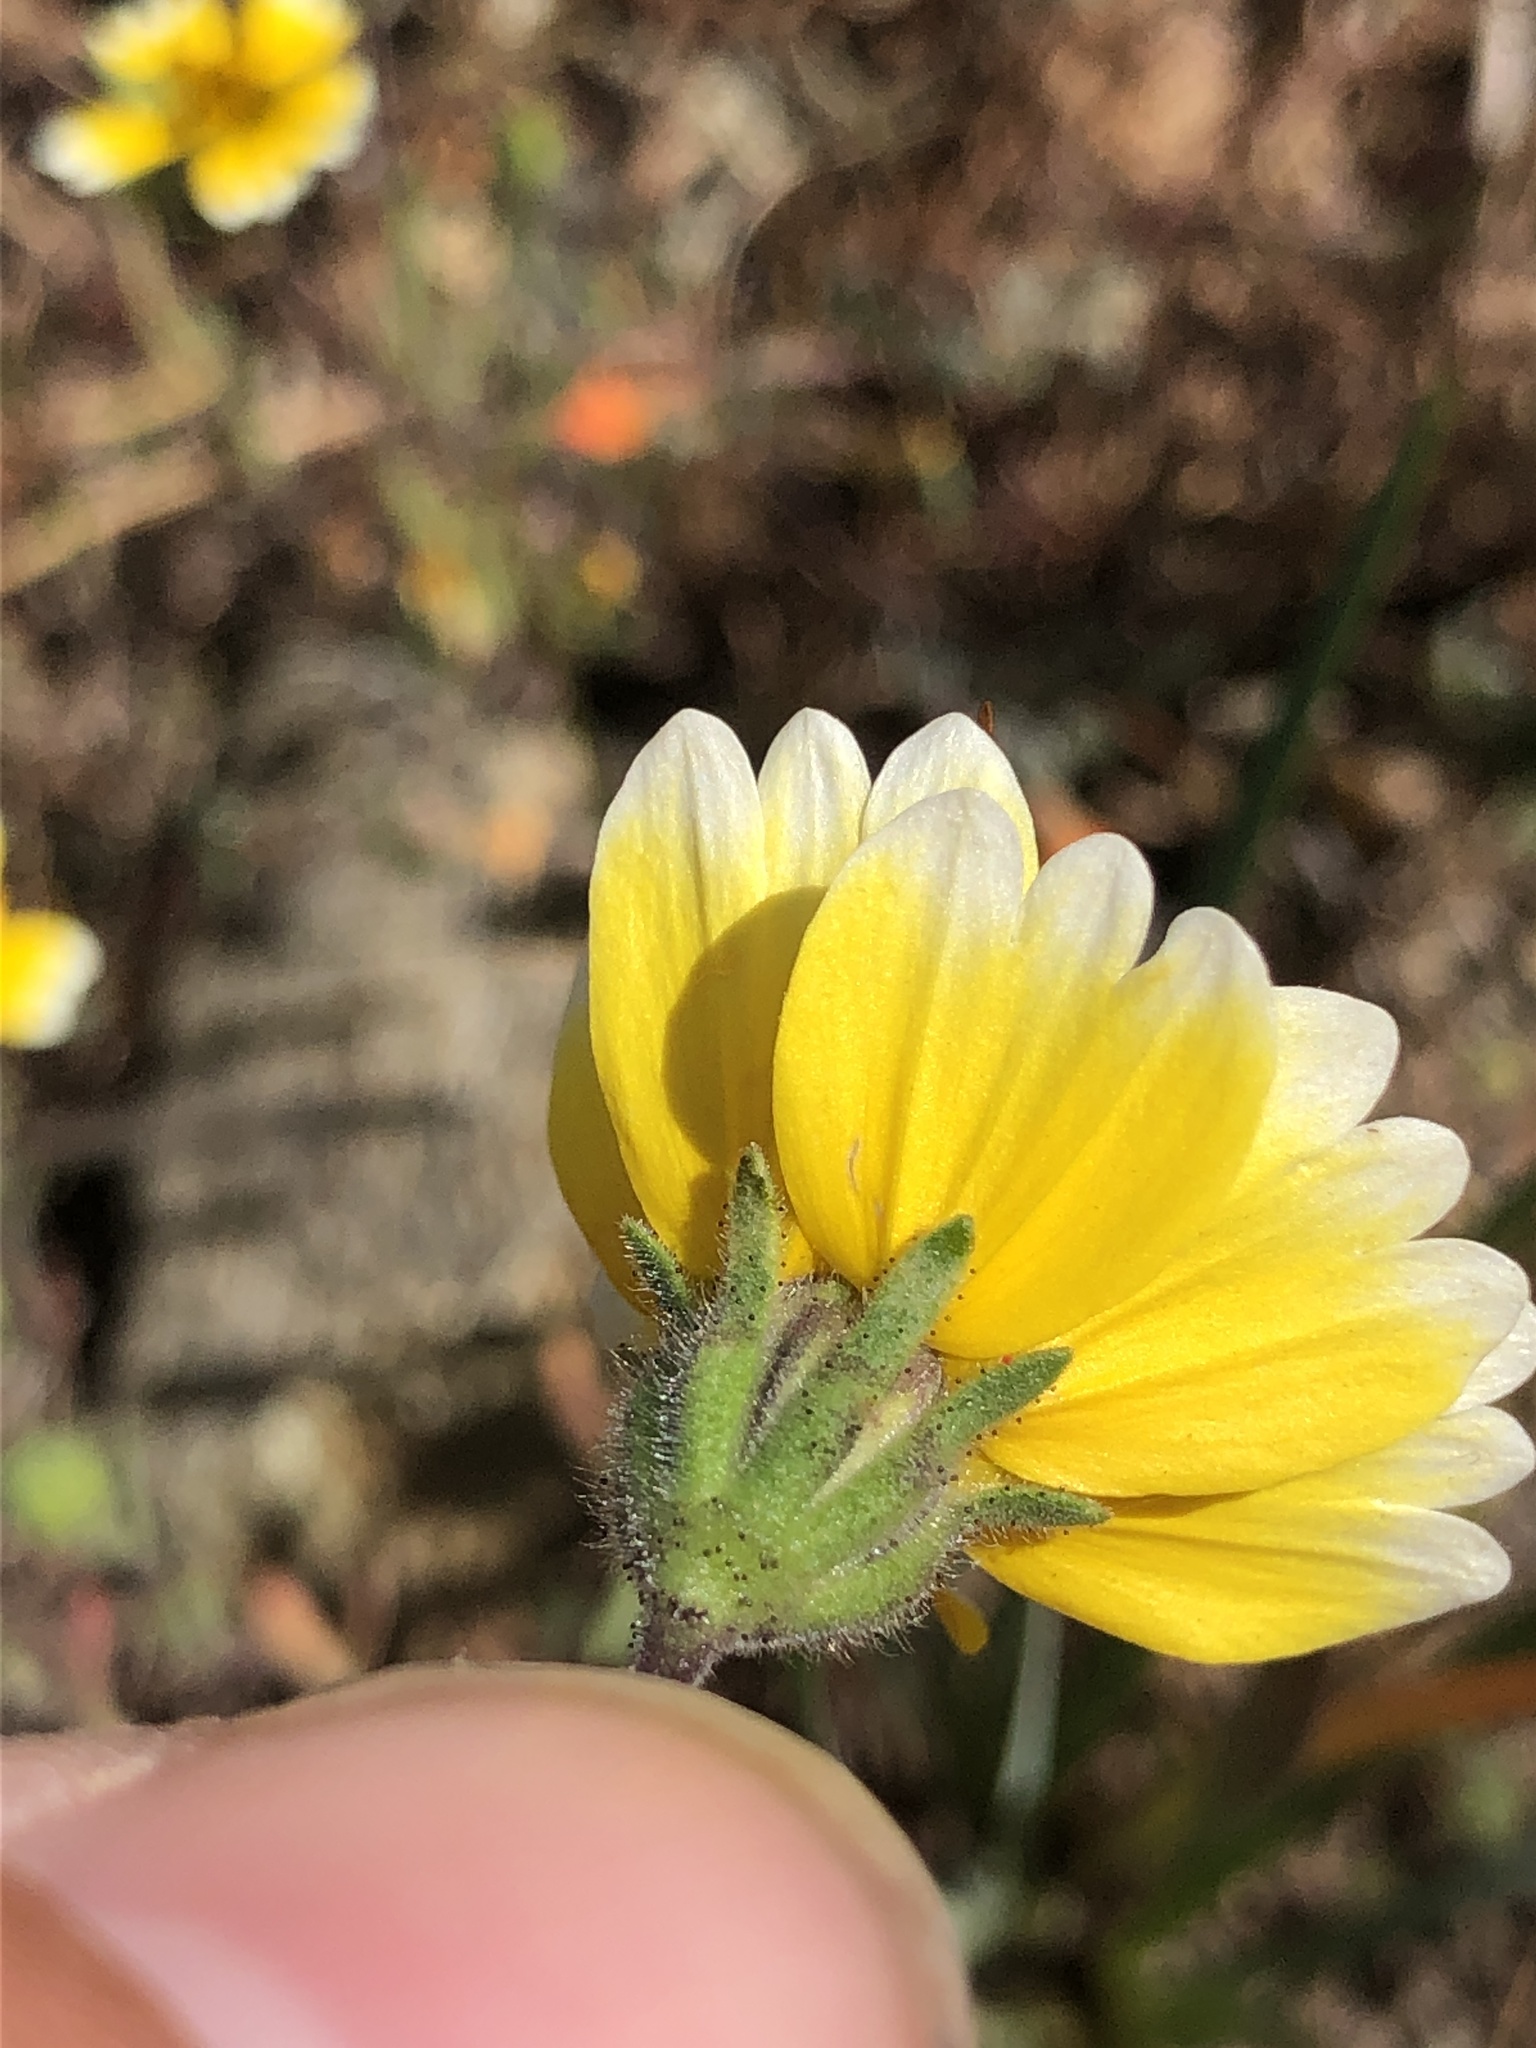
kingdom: Plantae
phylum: Tracheophyta
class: Magnoliopsida
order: Asterales
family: Asteraceae
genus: Layia
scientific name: Layia platyglossa
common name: Tidy-tips
